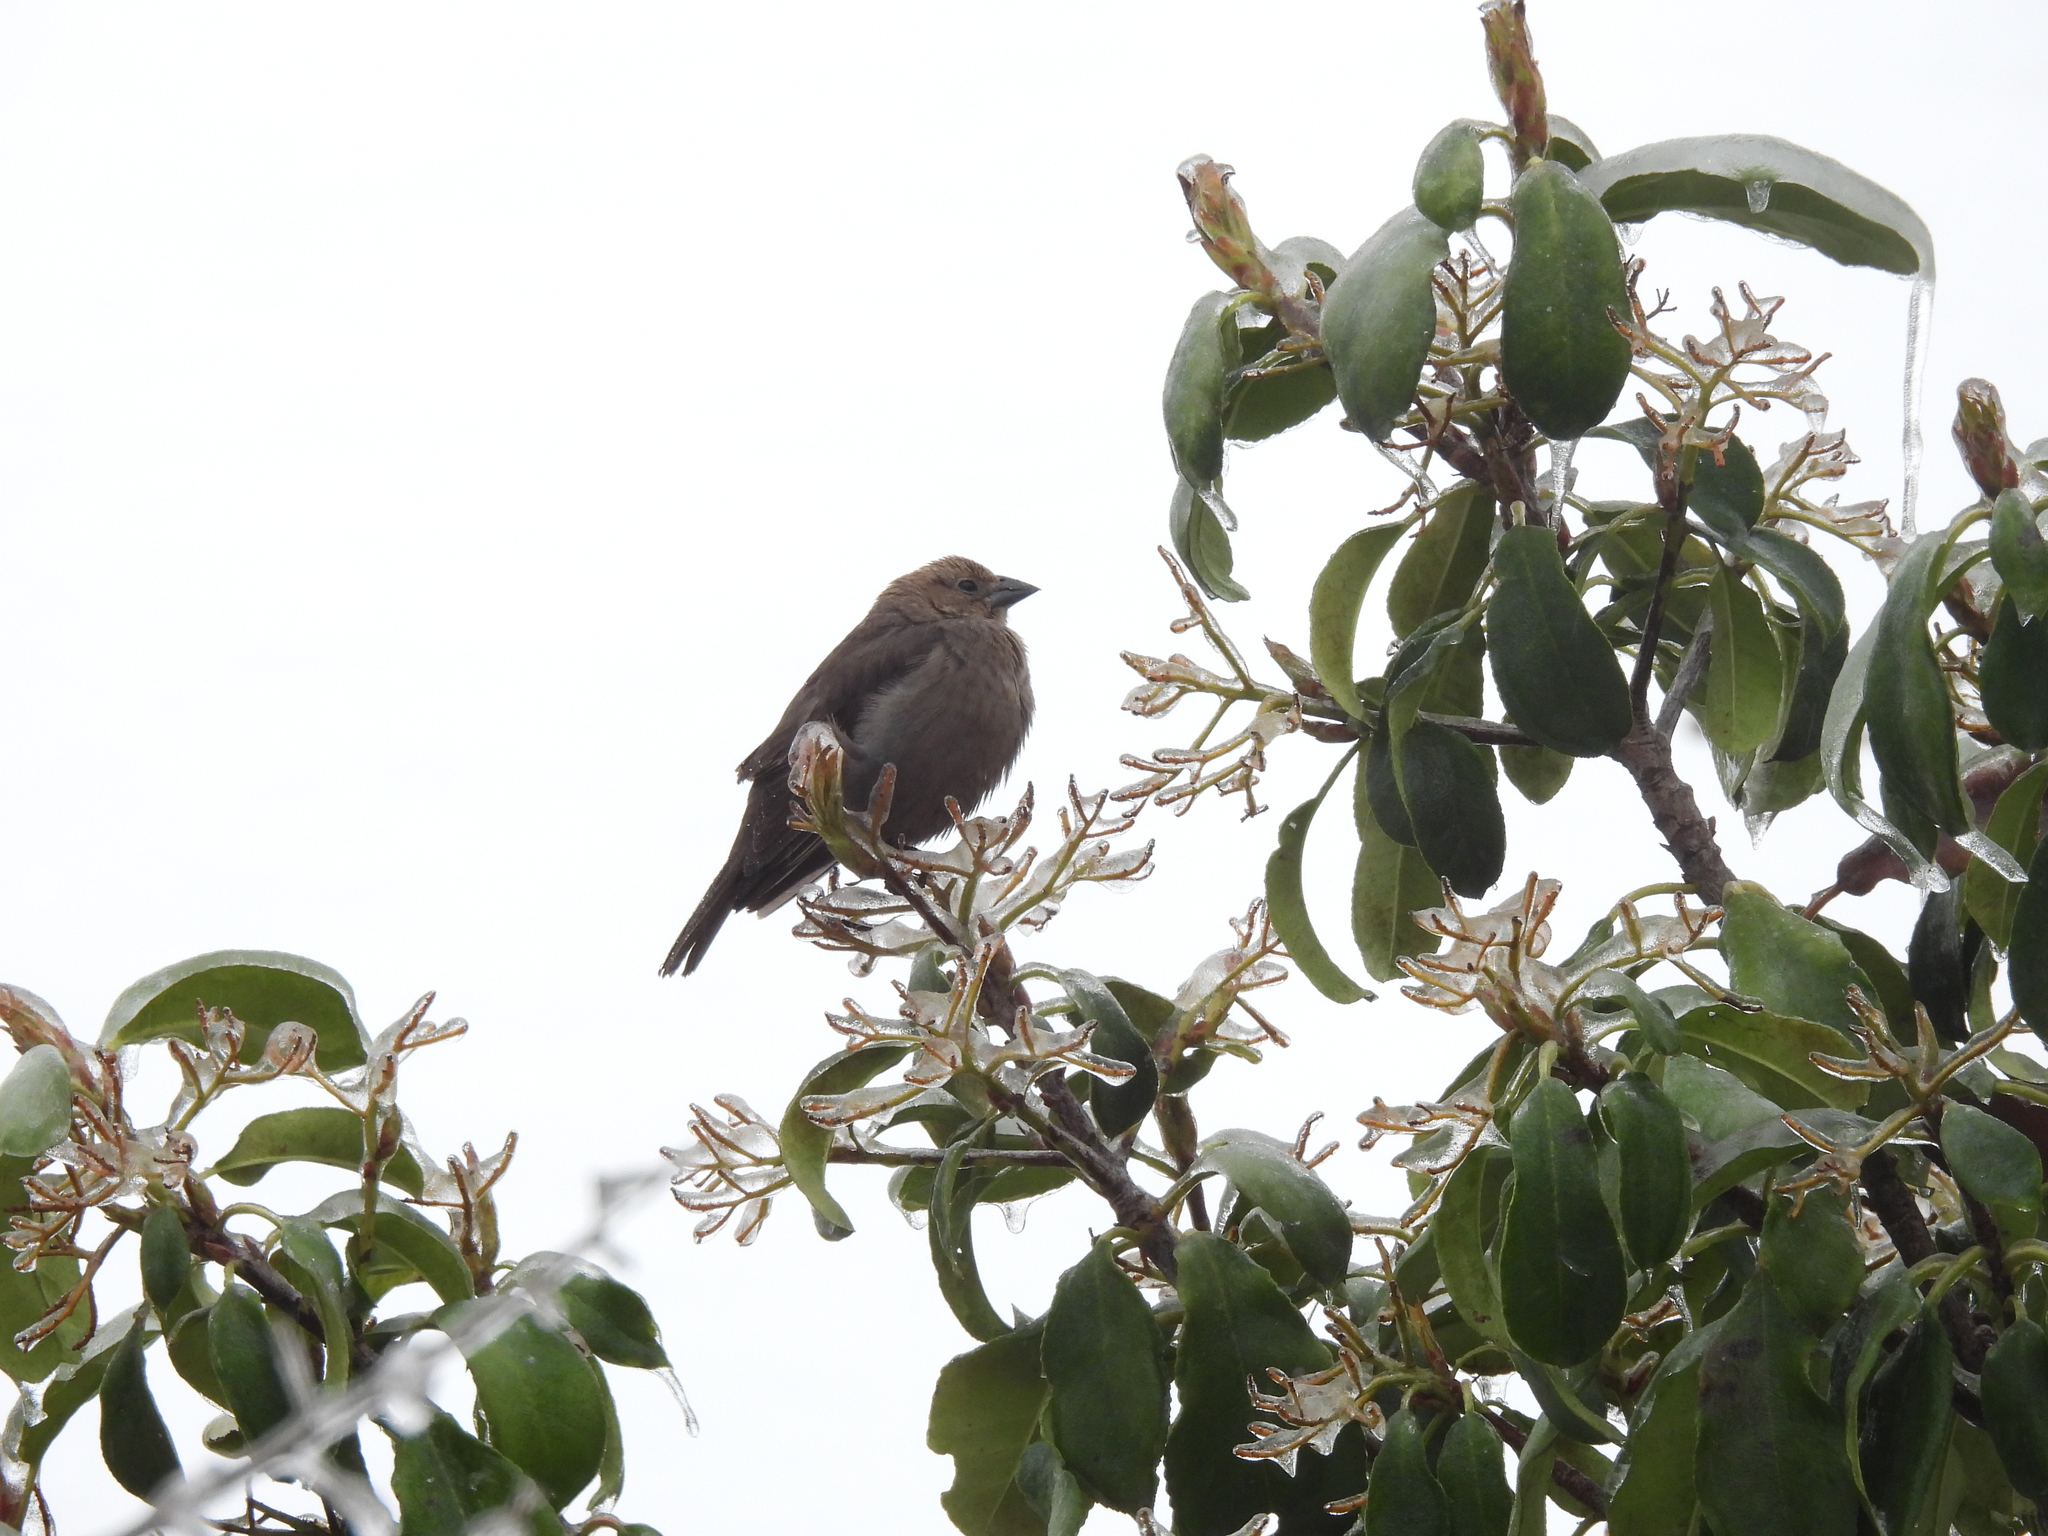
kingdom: Animalia
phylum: Chordata
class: Aves
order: Passeriformes
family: Icteridae
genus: Molothrus
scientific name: Molothrus ater
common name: Brown-headed cowbird
